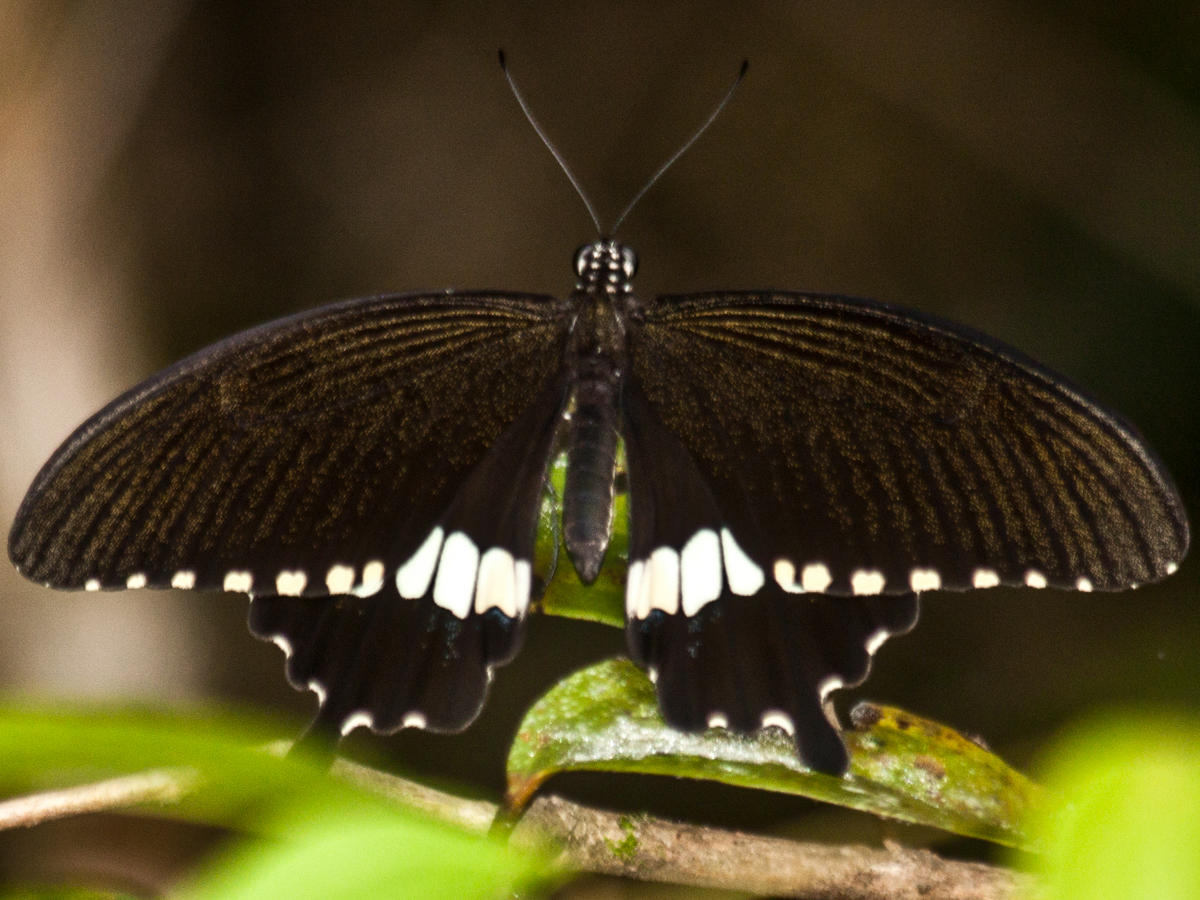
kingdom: Animalia
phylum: Arthropoda
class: Insecta
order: Lepidoptera
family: Papilionidae
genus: Papilio
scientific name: Papilio polytes
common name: Common mormon
